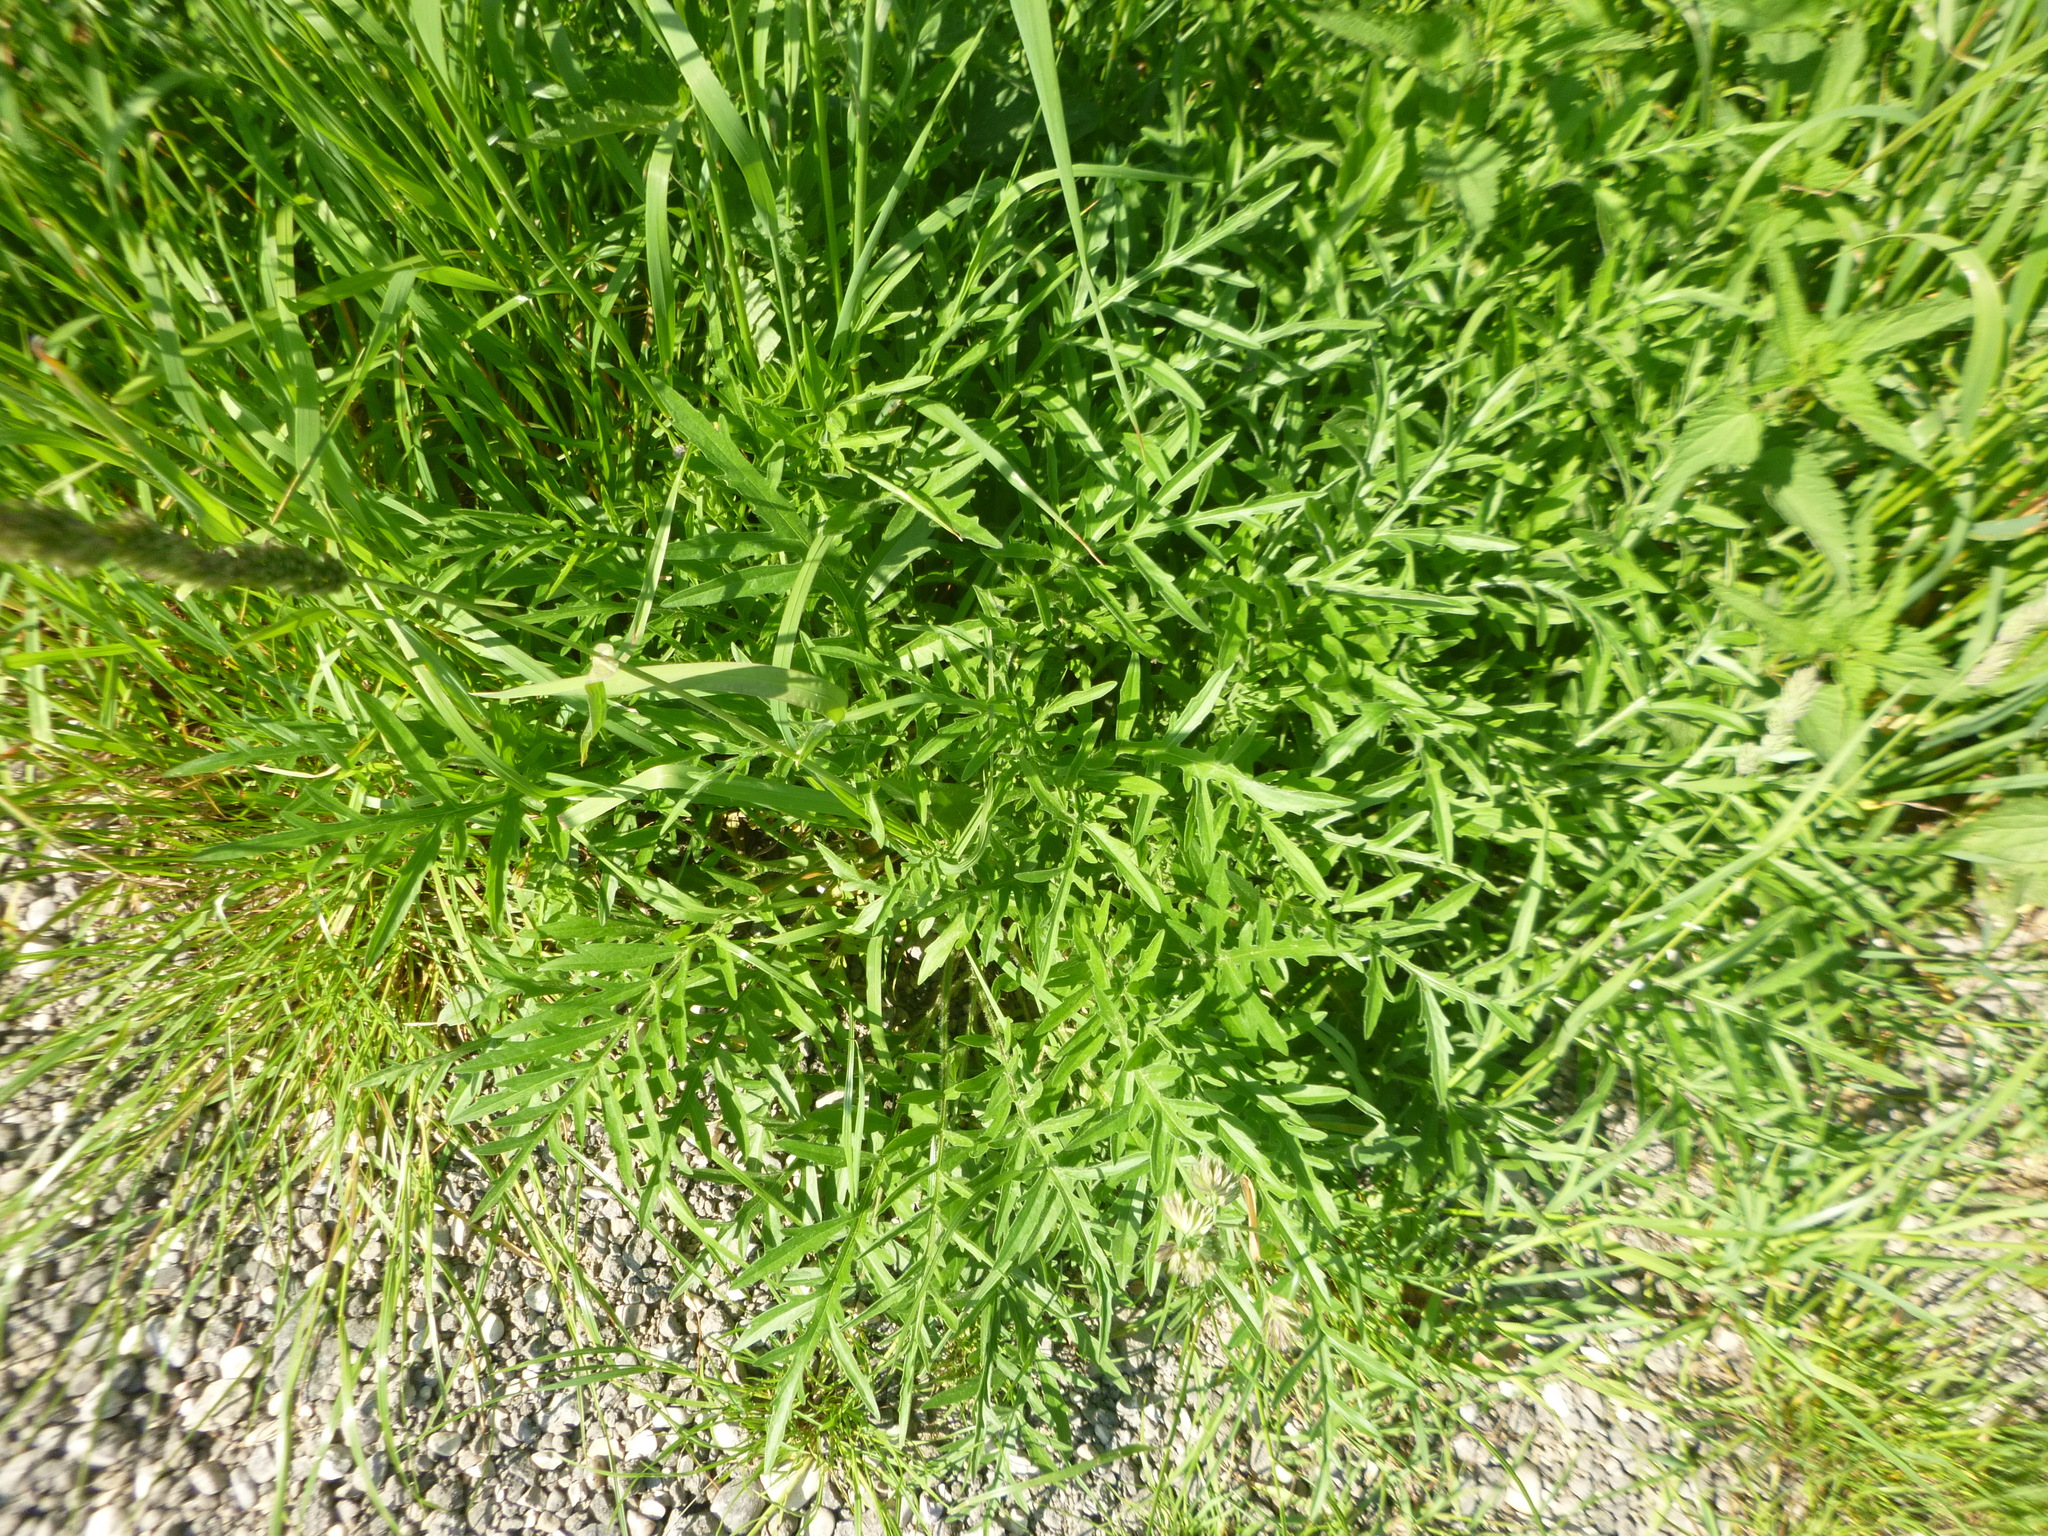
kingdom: Plantae
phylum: Tracheophyta
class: Magnoliopsida
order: Asterales
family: Asteraceae
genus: Centaurea
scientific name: Centaurea scabiosa
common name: Greater knapweed
